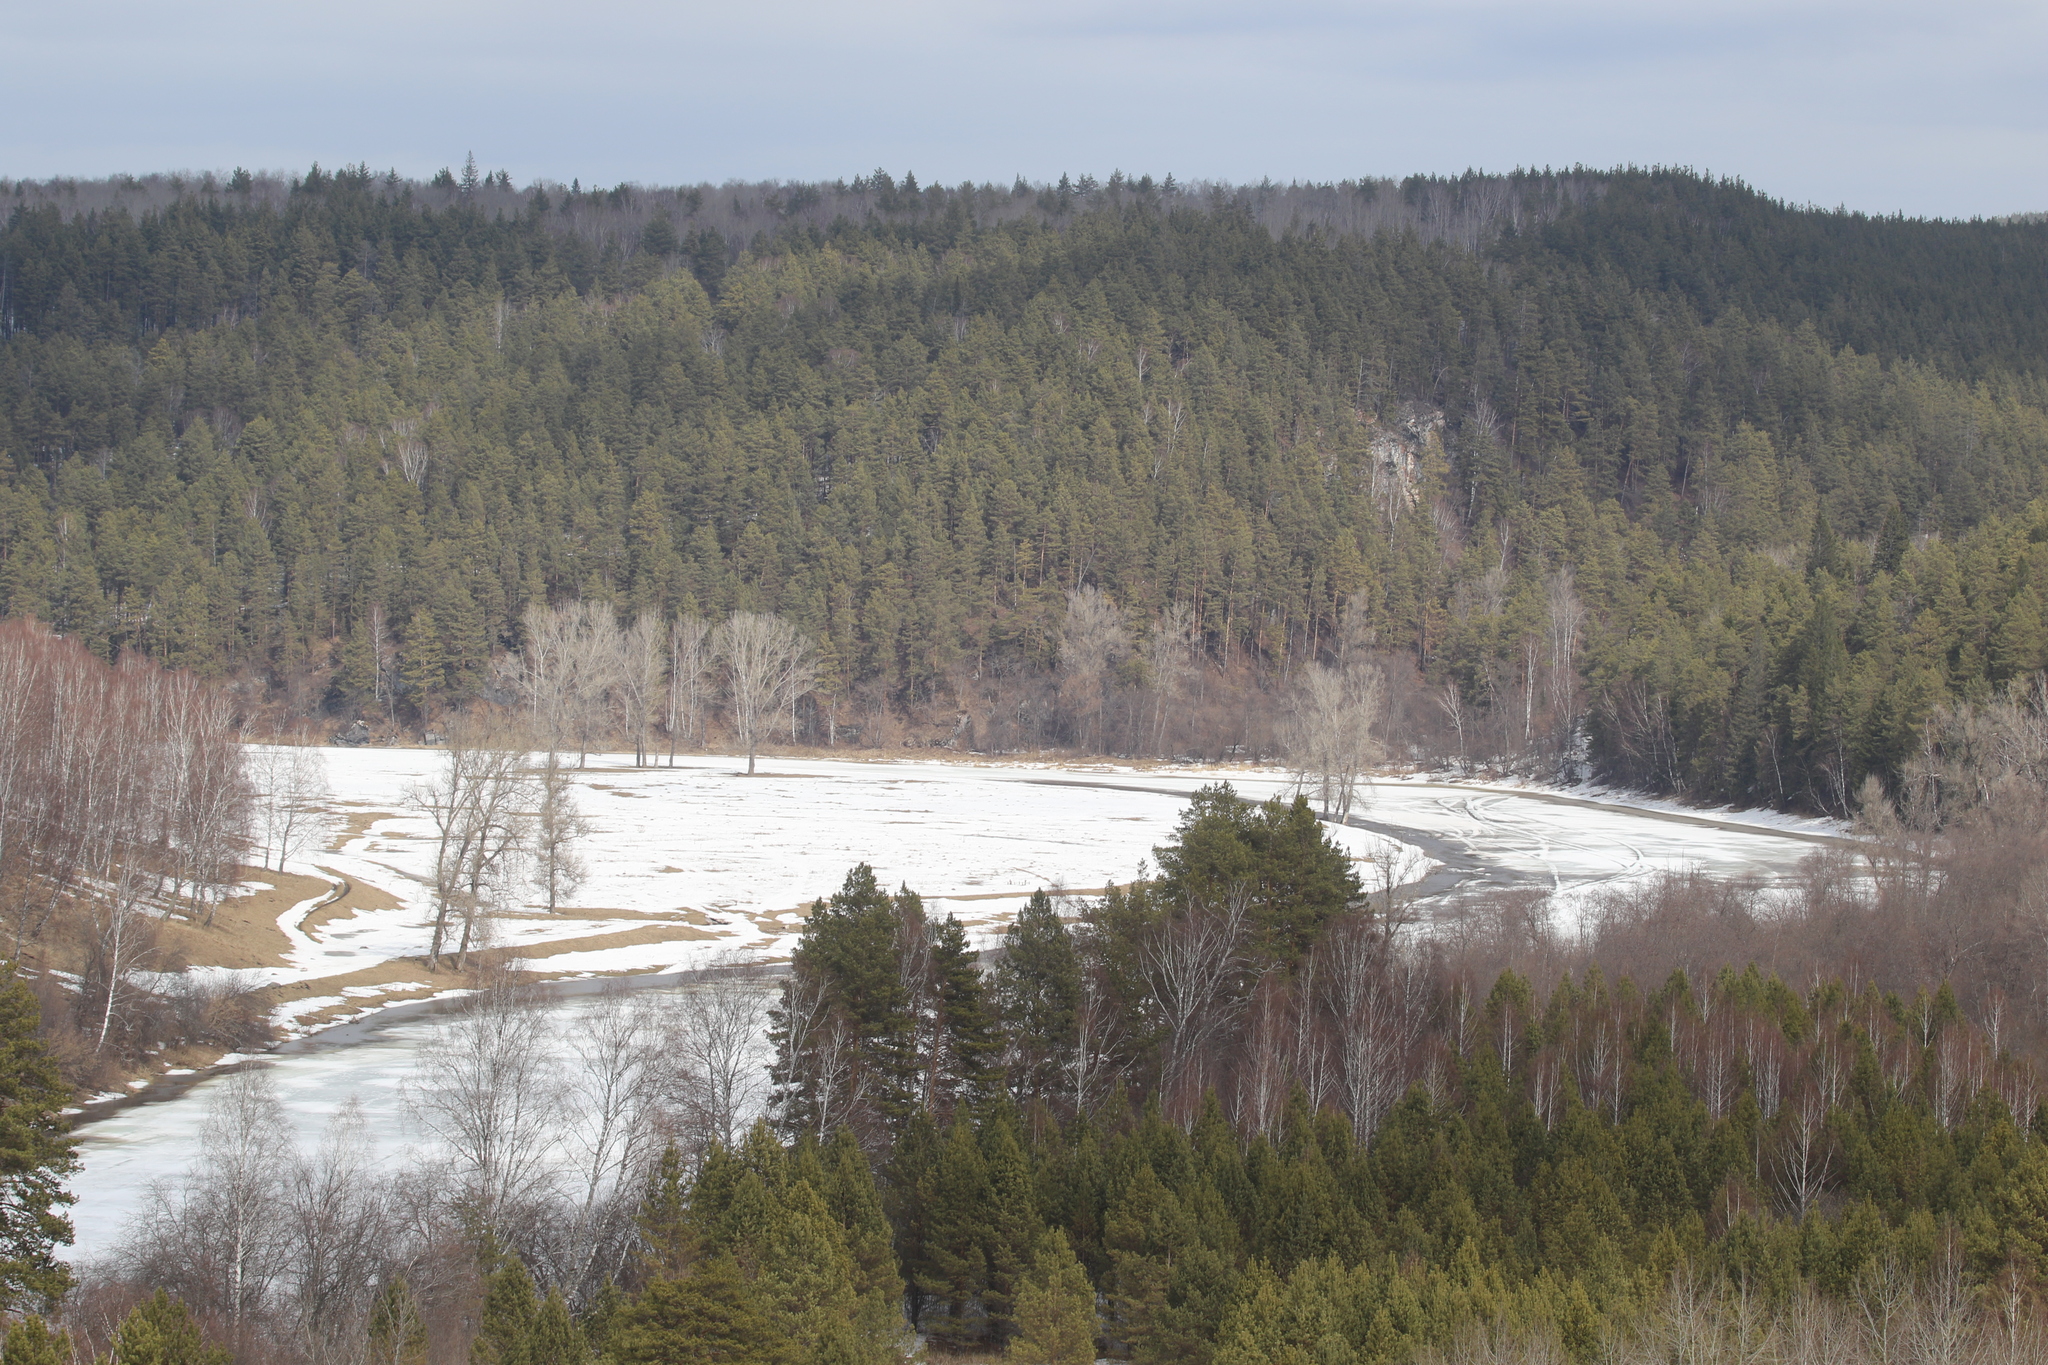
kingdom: Plantae
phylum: Tracheophyta
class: Pinopsida
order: Pinales
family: Pinaceae
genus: Pinus
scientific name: Pinus sylvestris
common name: Scots pine
